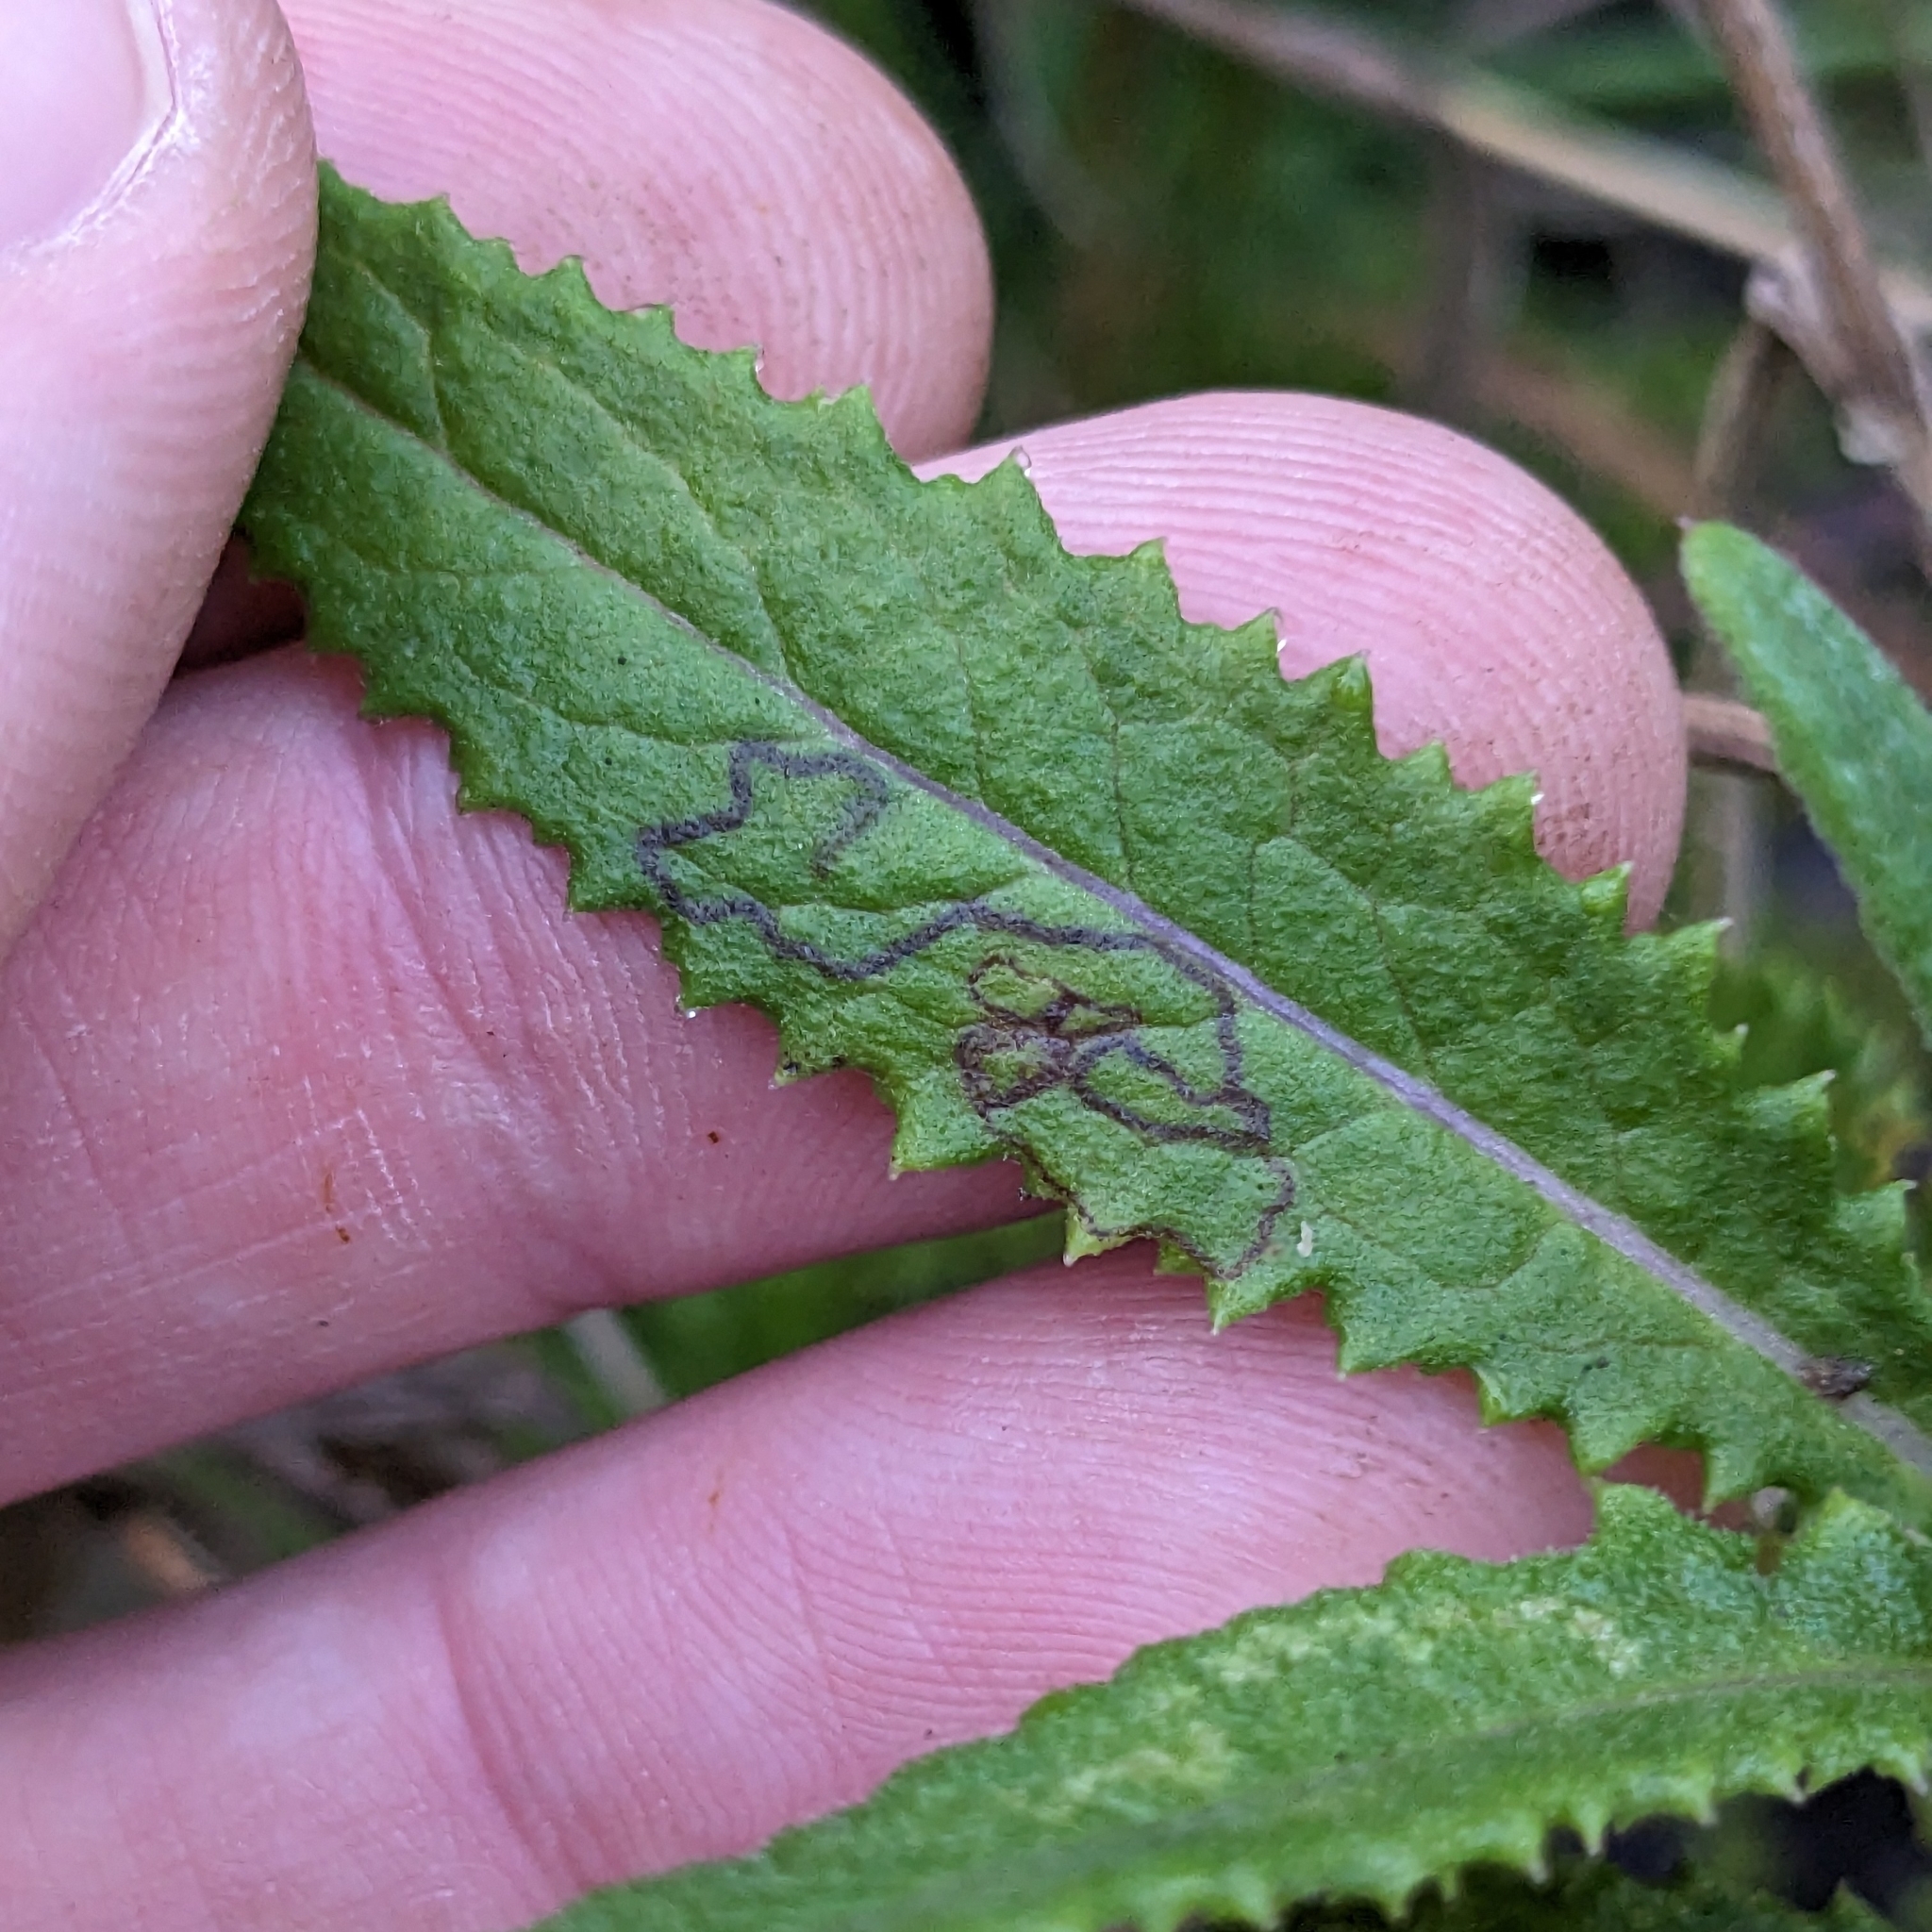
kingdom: Animalia
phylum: Arthropoda
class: Insecta
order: Lepidoptera
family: Nepticulidae
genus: Stigmella
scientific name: Stigmella ogygia
